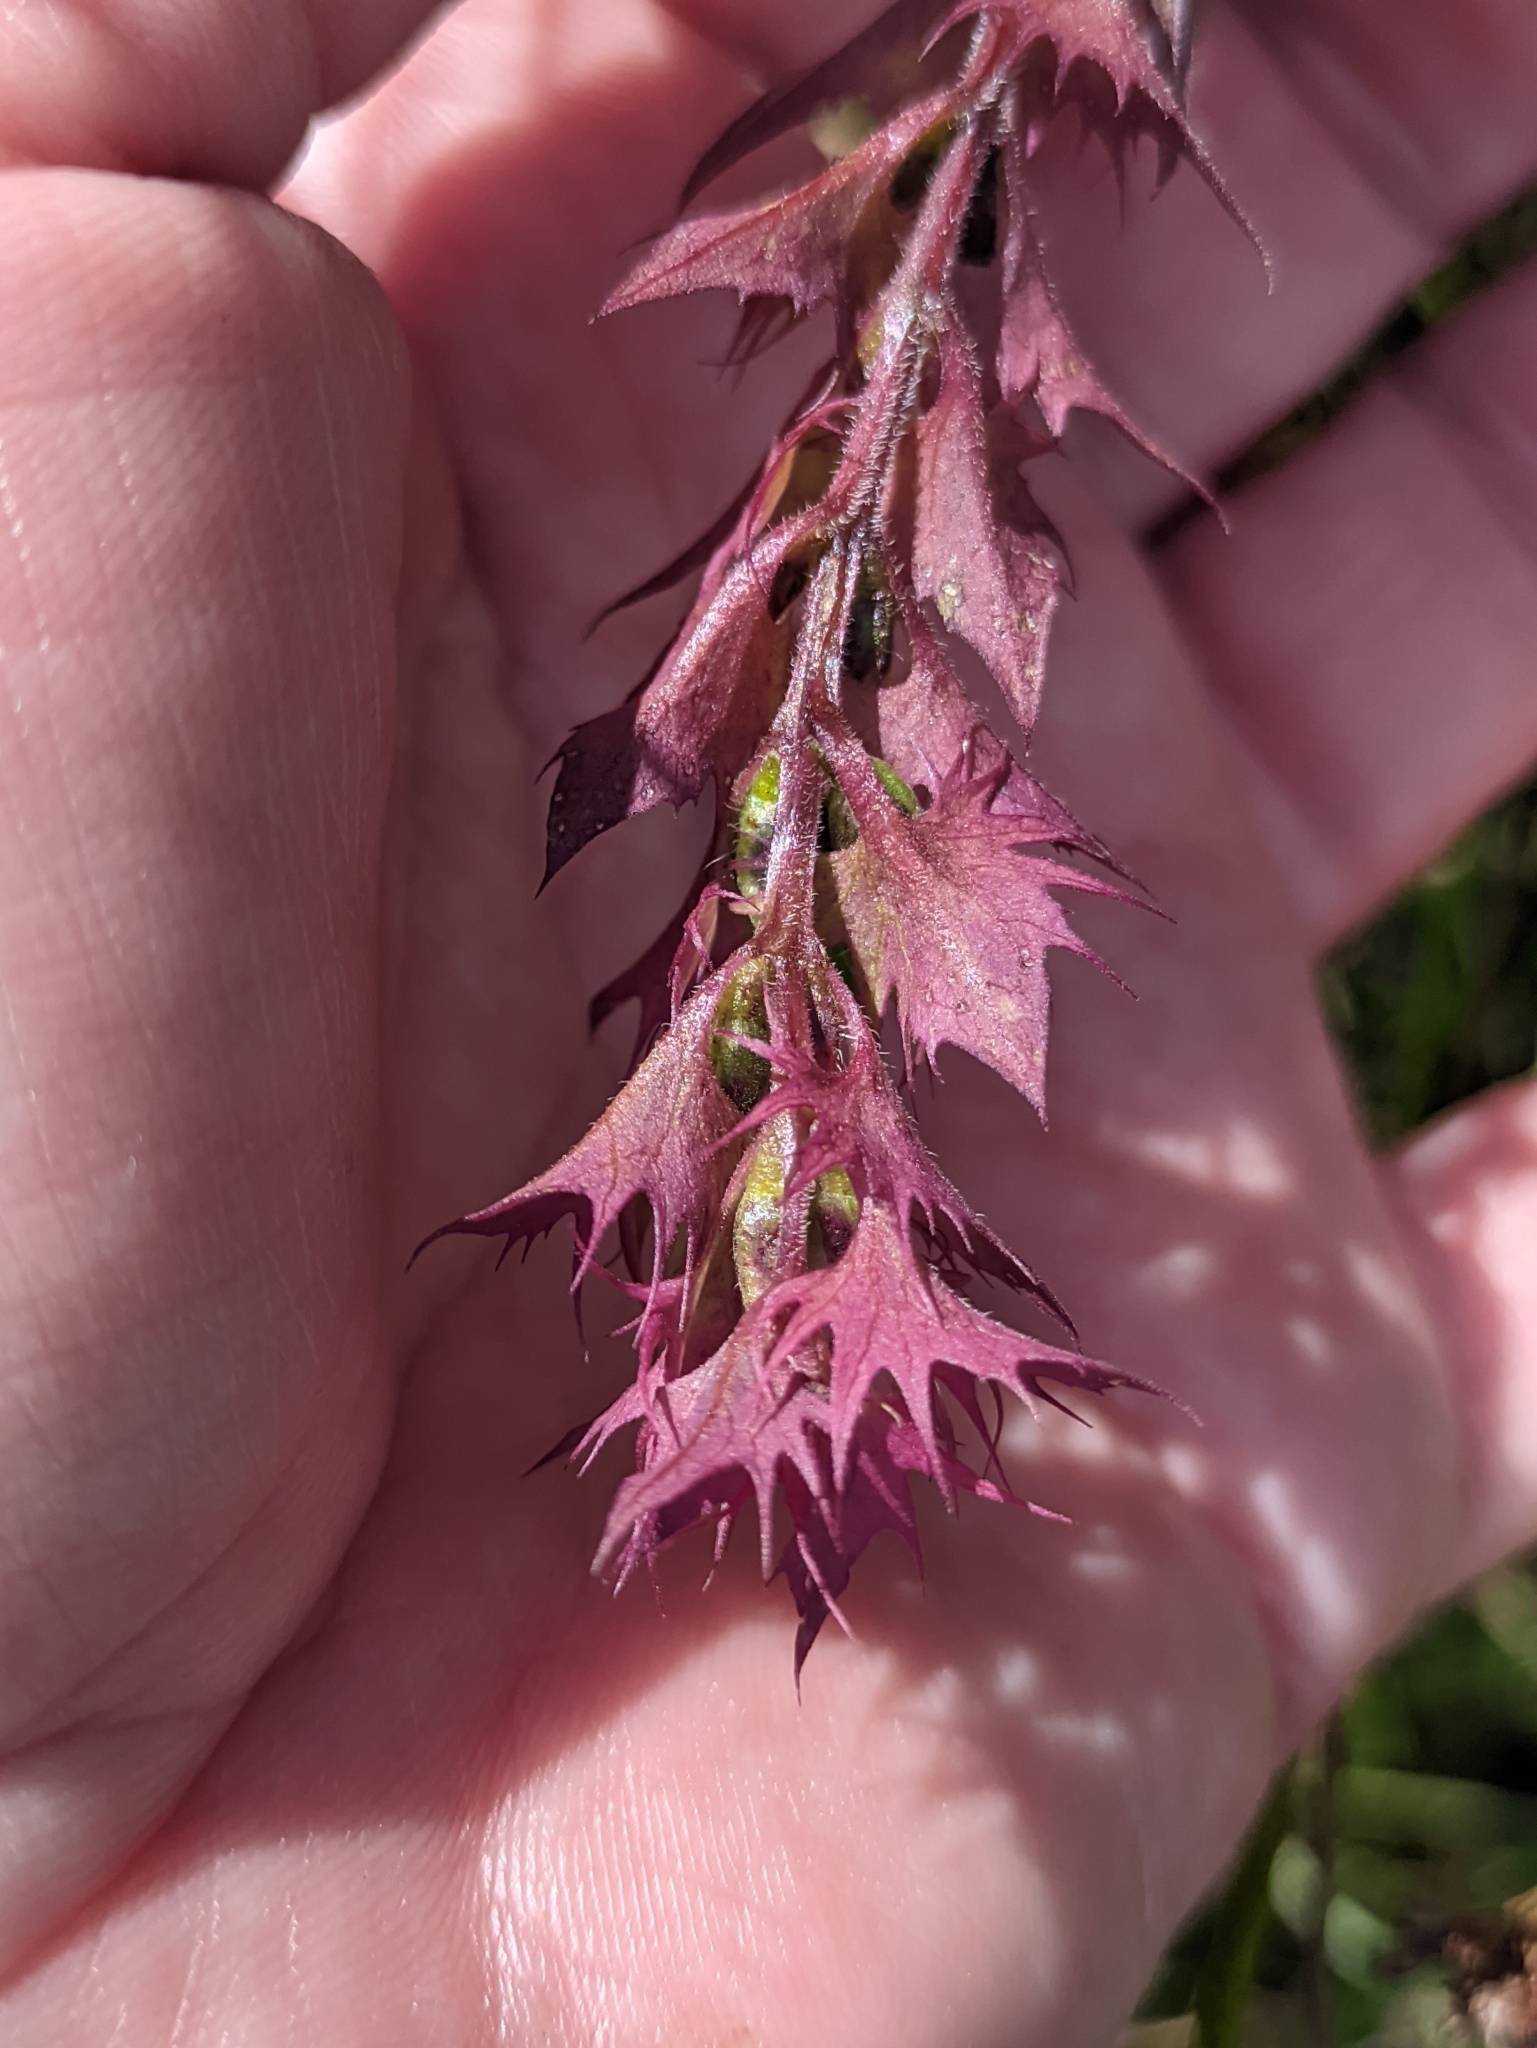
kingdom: Plantae
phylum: Tracheophyta
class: Magnoliopsida
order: Lamiales
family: Orobanchaceae
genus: Melampyrum
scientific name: Melampyrum nemorosum
